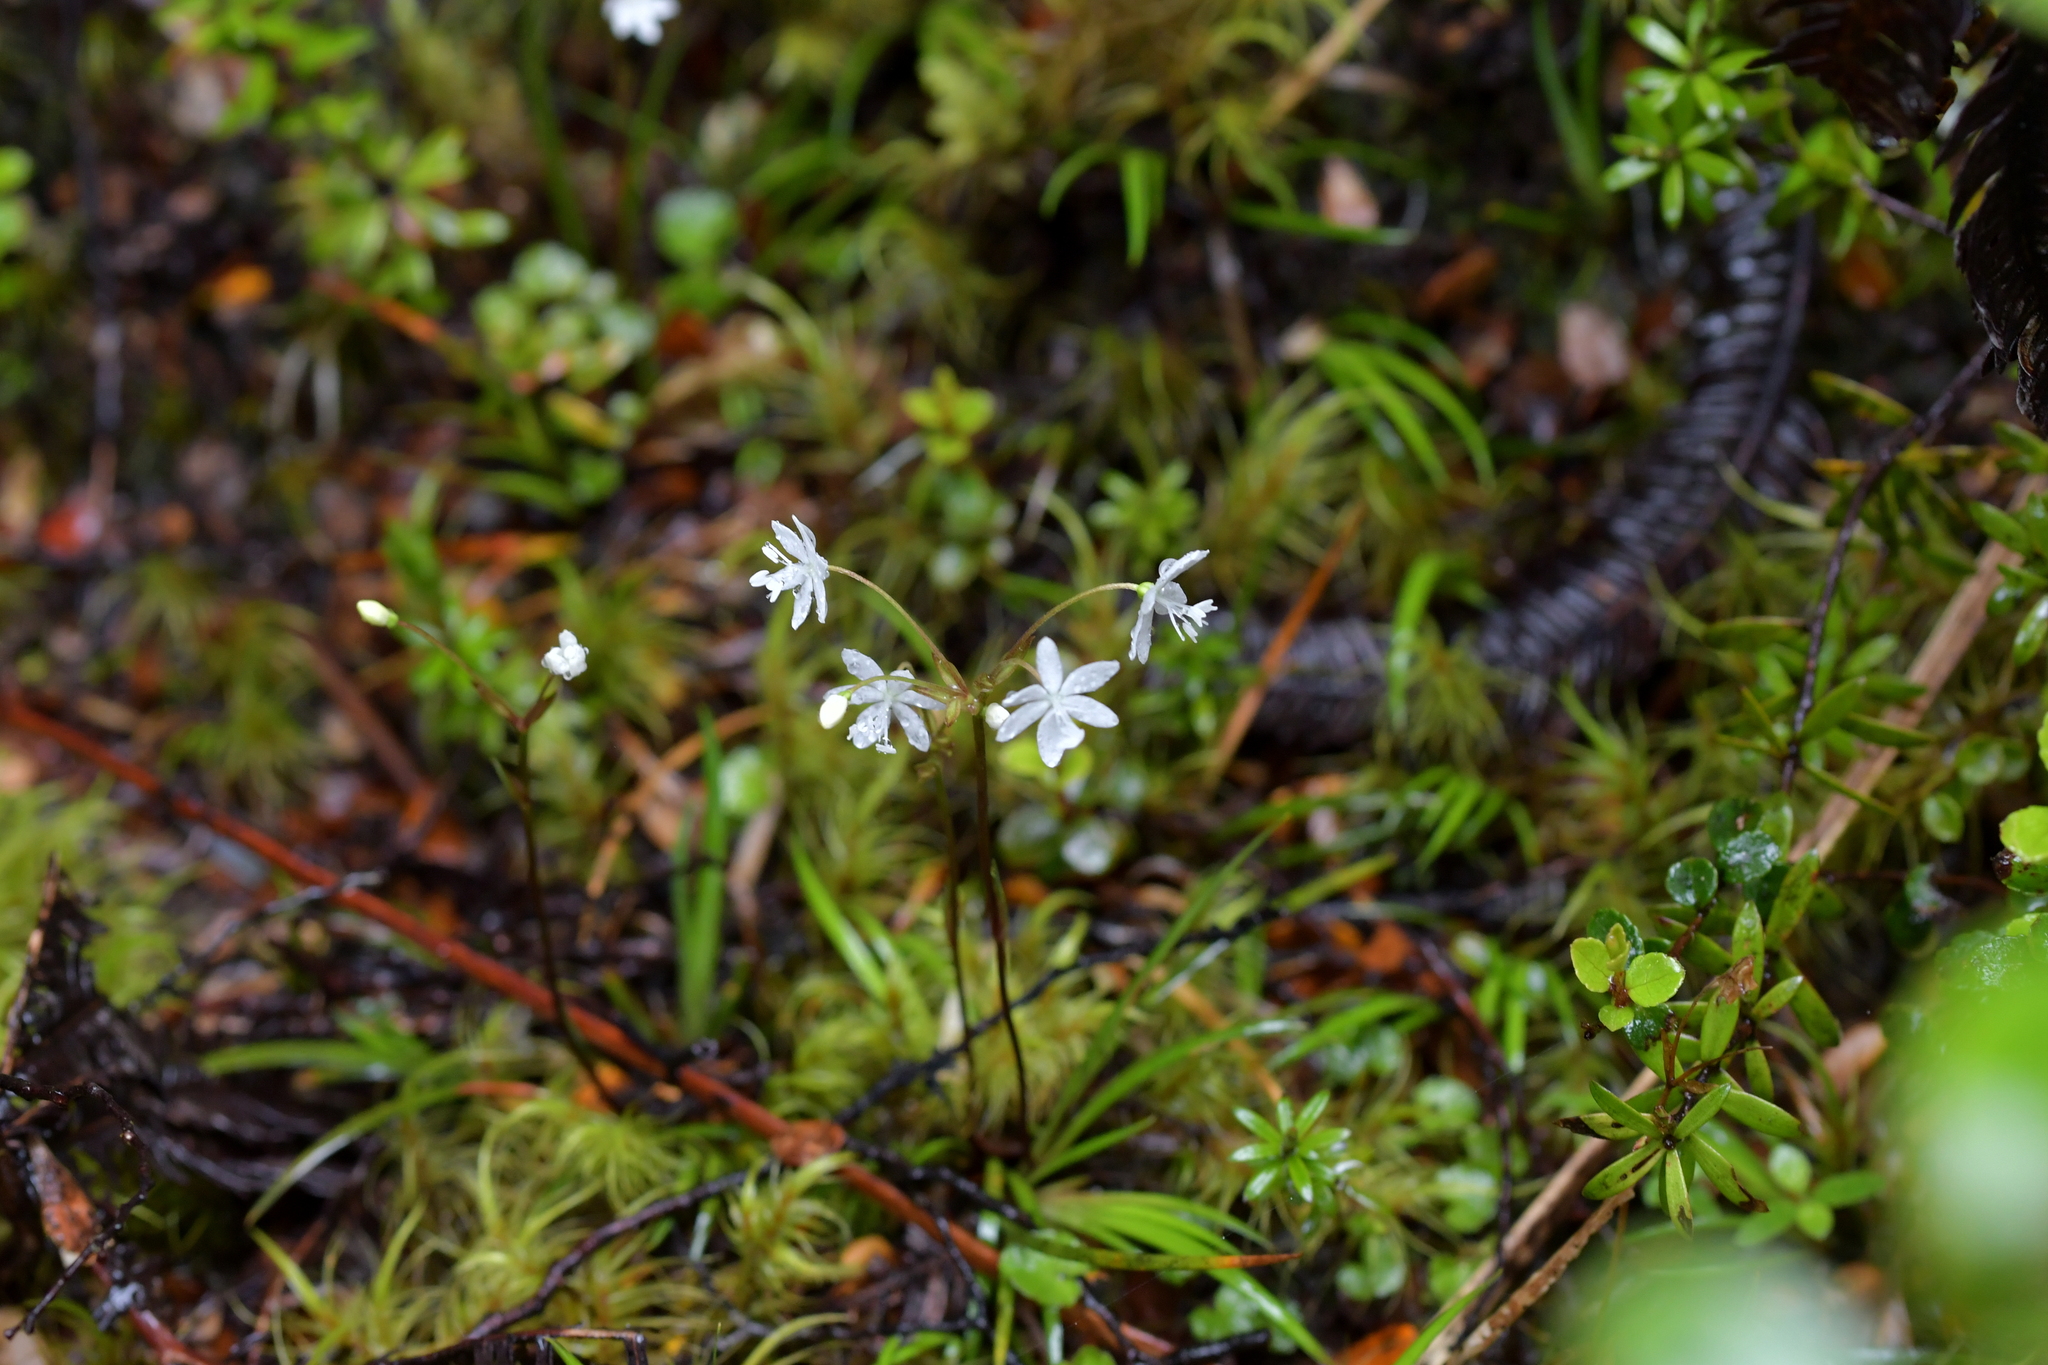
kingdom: Plantae
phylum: Tracheophyta
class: Liliopsida
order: Asparagales
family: Iridaceae
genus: Libertia
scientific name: Libertia micrantha
